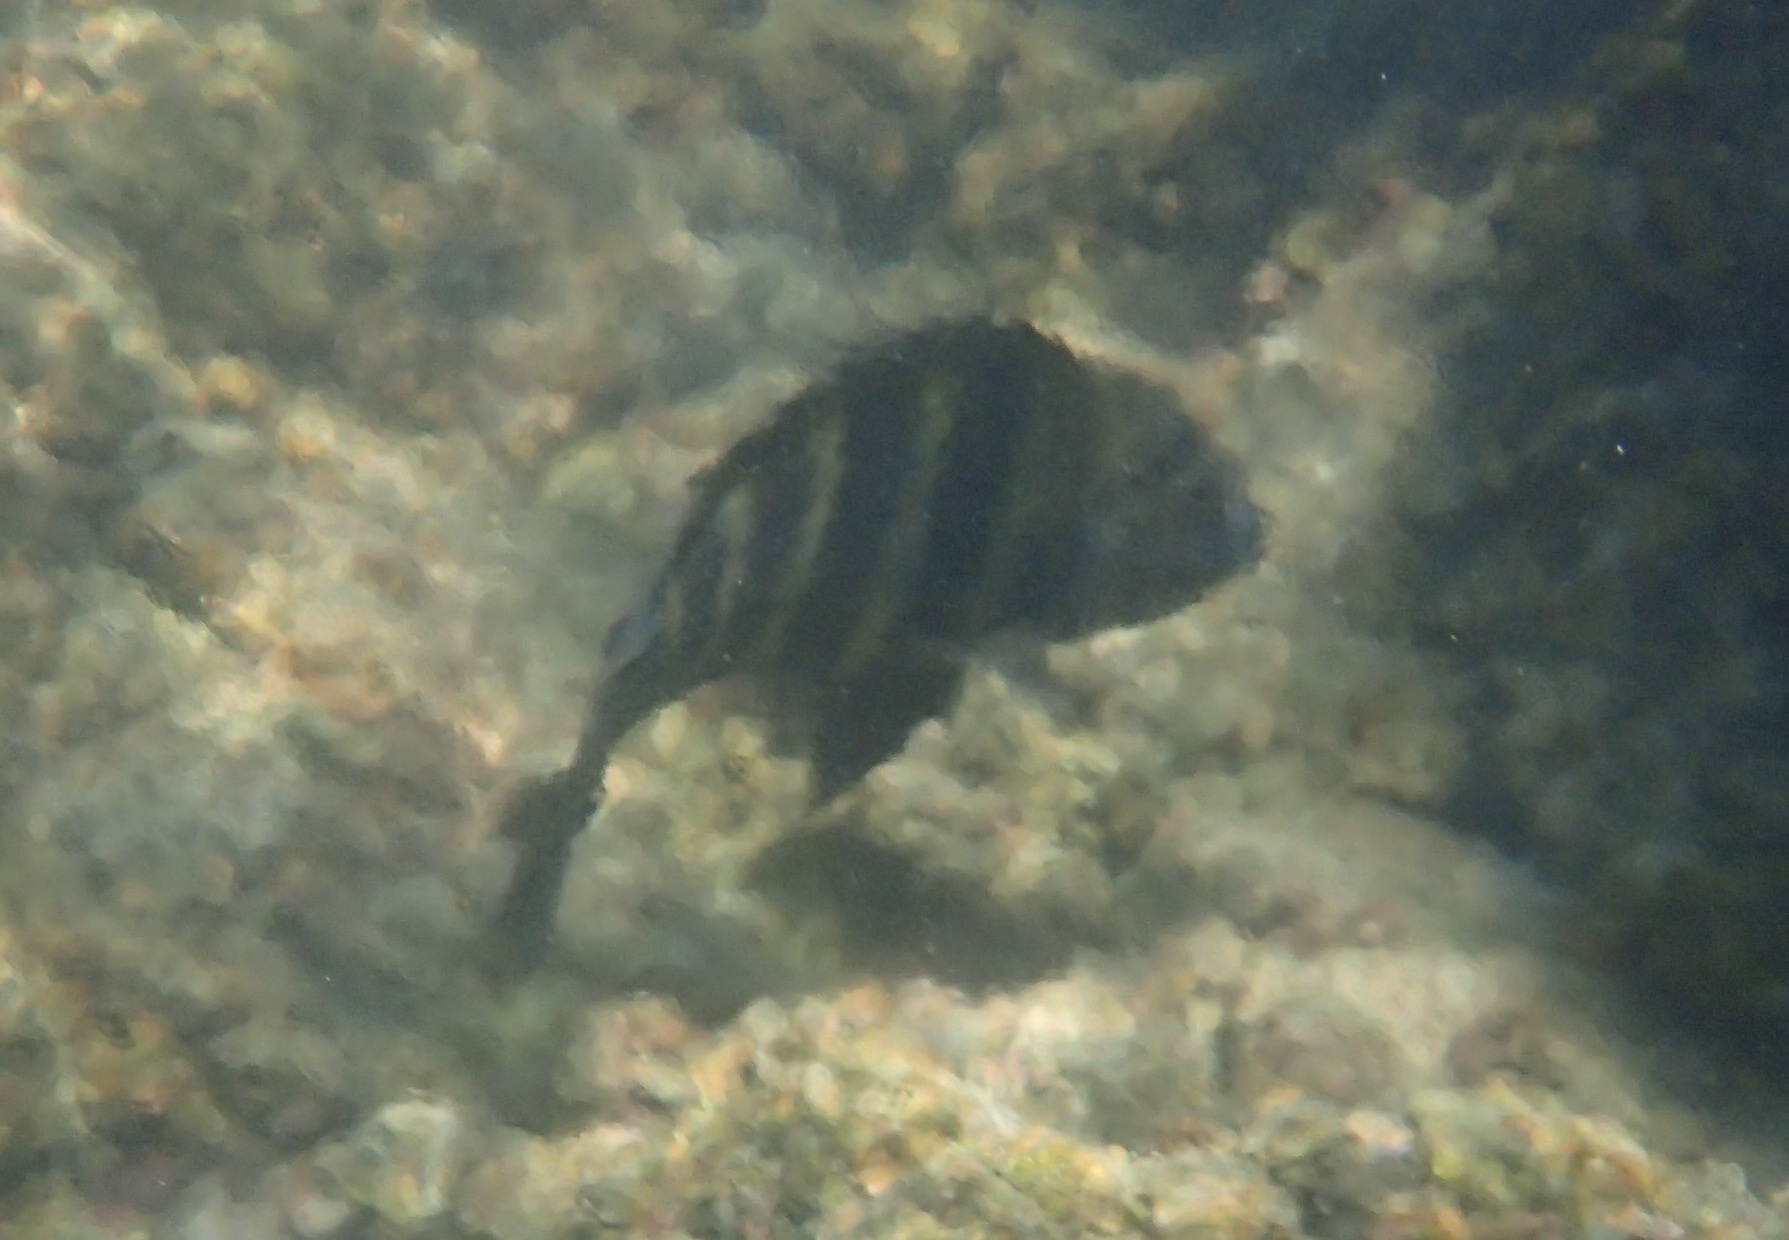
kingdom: Animalia
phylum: Chordata
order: Perciformes
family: Pomacentridae
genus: Abudefduf
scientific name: Abudefduf sordidus
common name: Blackspot sergeant
